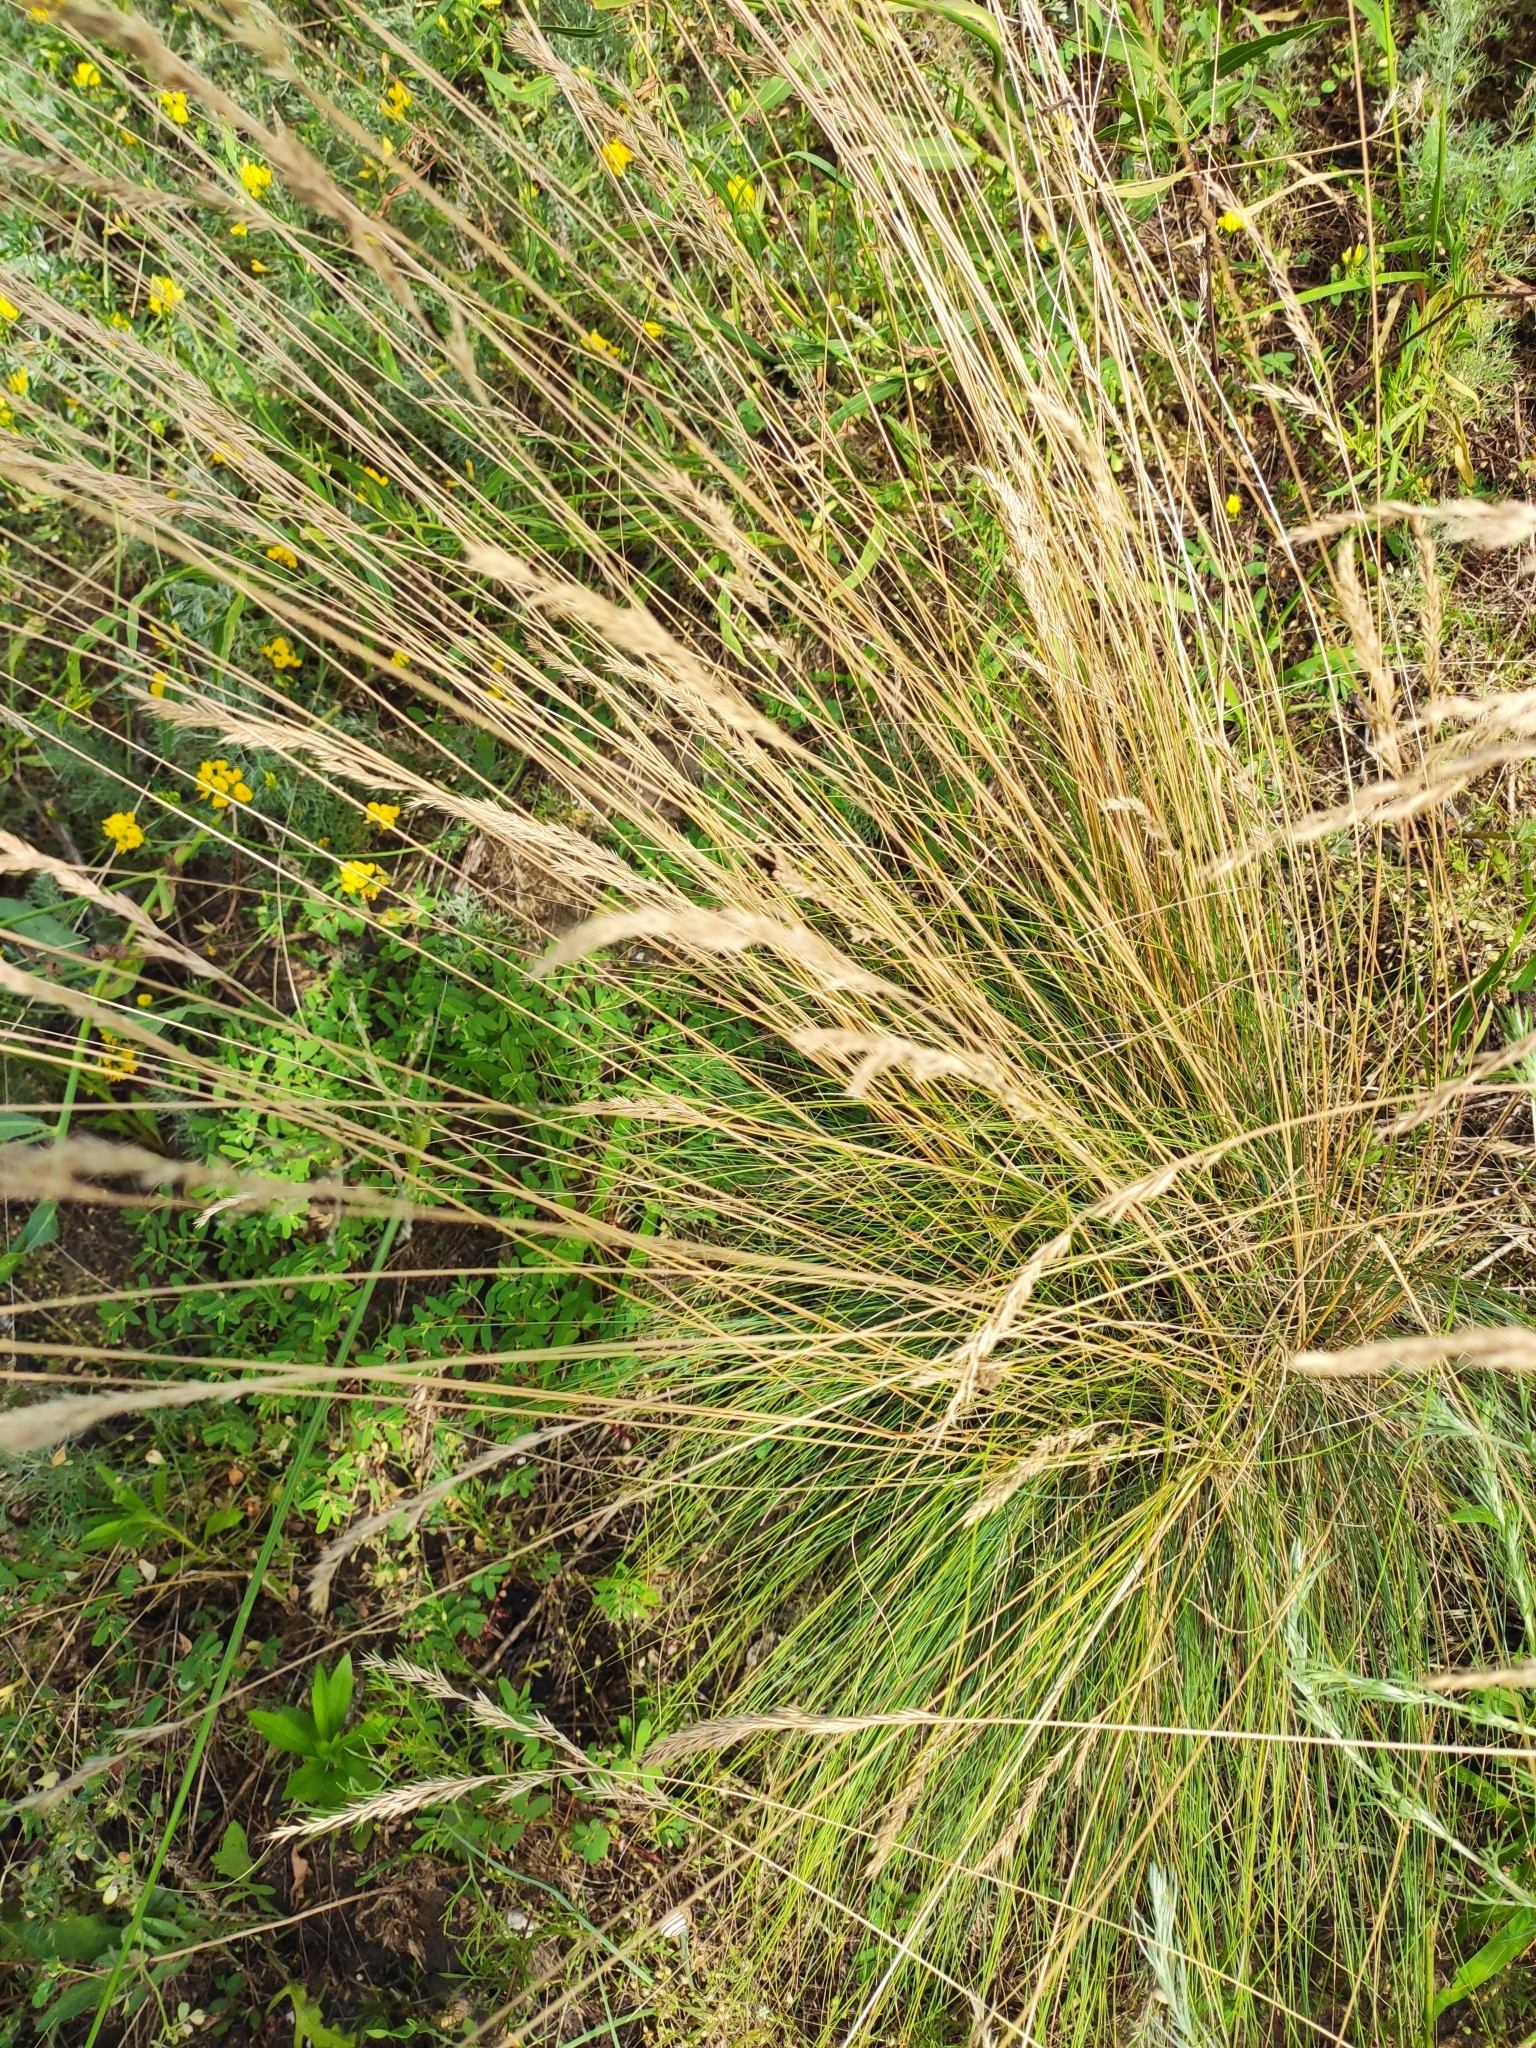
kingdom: Plantae
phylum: Tracheophyta
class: Liliopsida
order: Poales
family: Poaceae
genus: Festuca
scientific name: Festuca rupicola
